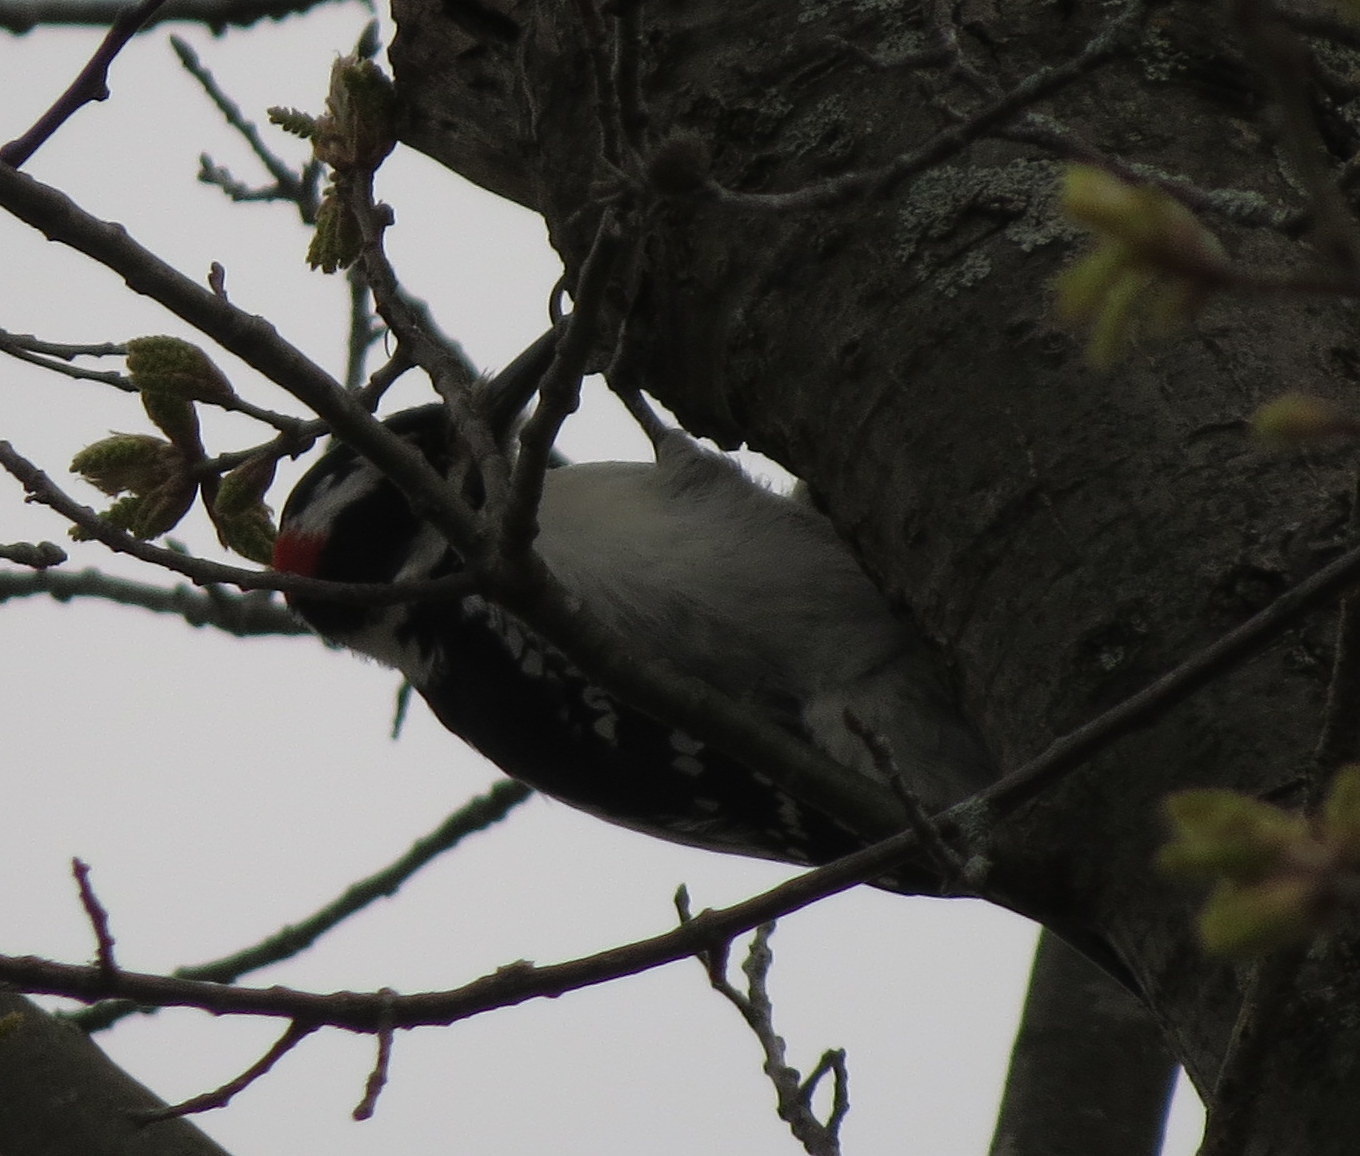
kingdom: Animalia
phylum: Chordata
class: Aves
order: Piciformes
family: Picidae
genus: Leuconotopicus
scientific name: Leuconotopicus villosus
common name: Hairy woodpecker
